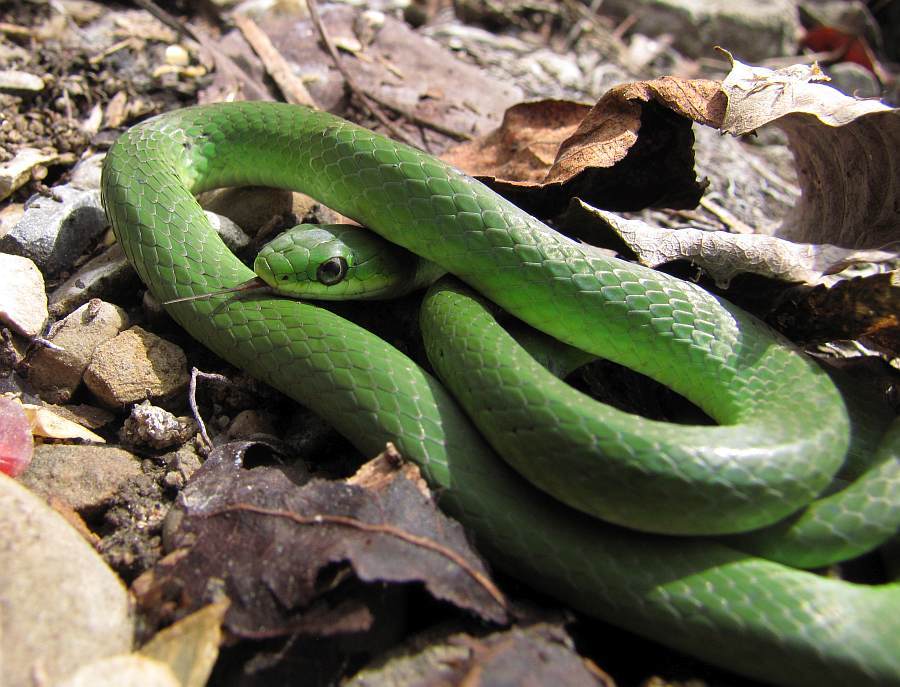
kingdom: Animalia
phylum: Chordata
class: Squamata
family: Colubridae
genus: Opheodrys
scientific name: Opheodrys vernalis
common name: Smooth green snake
